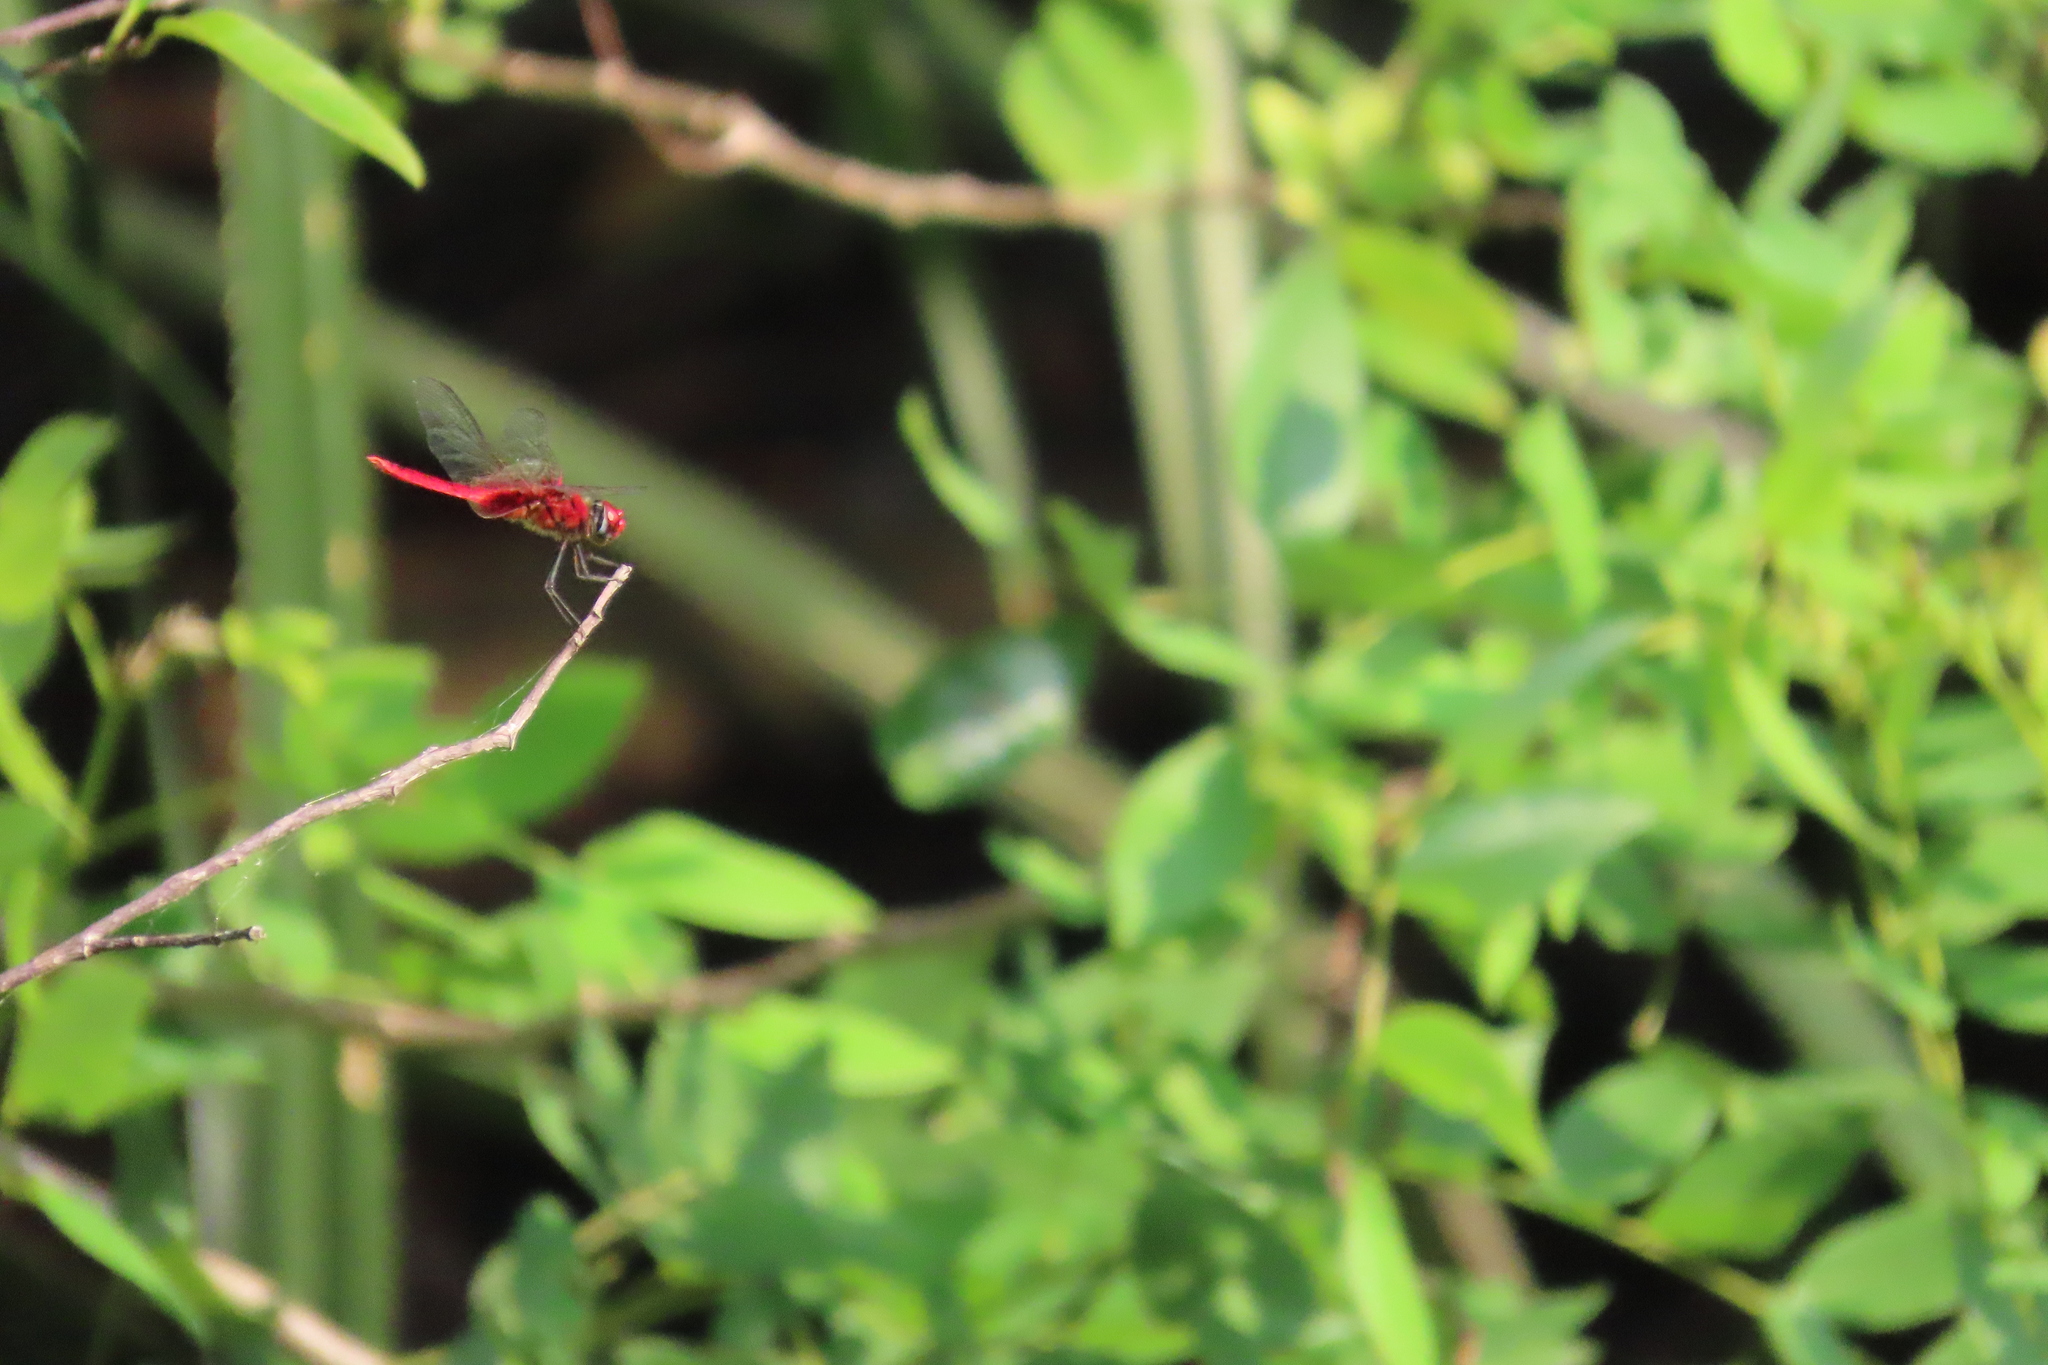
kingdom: Animalia
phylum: Arthropoda
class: Insecta
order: Odonata
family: Libellulidae
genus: Urothemis
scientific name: Urothemis signata
